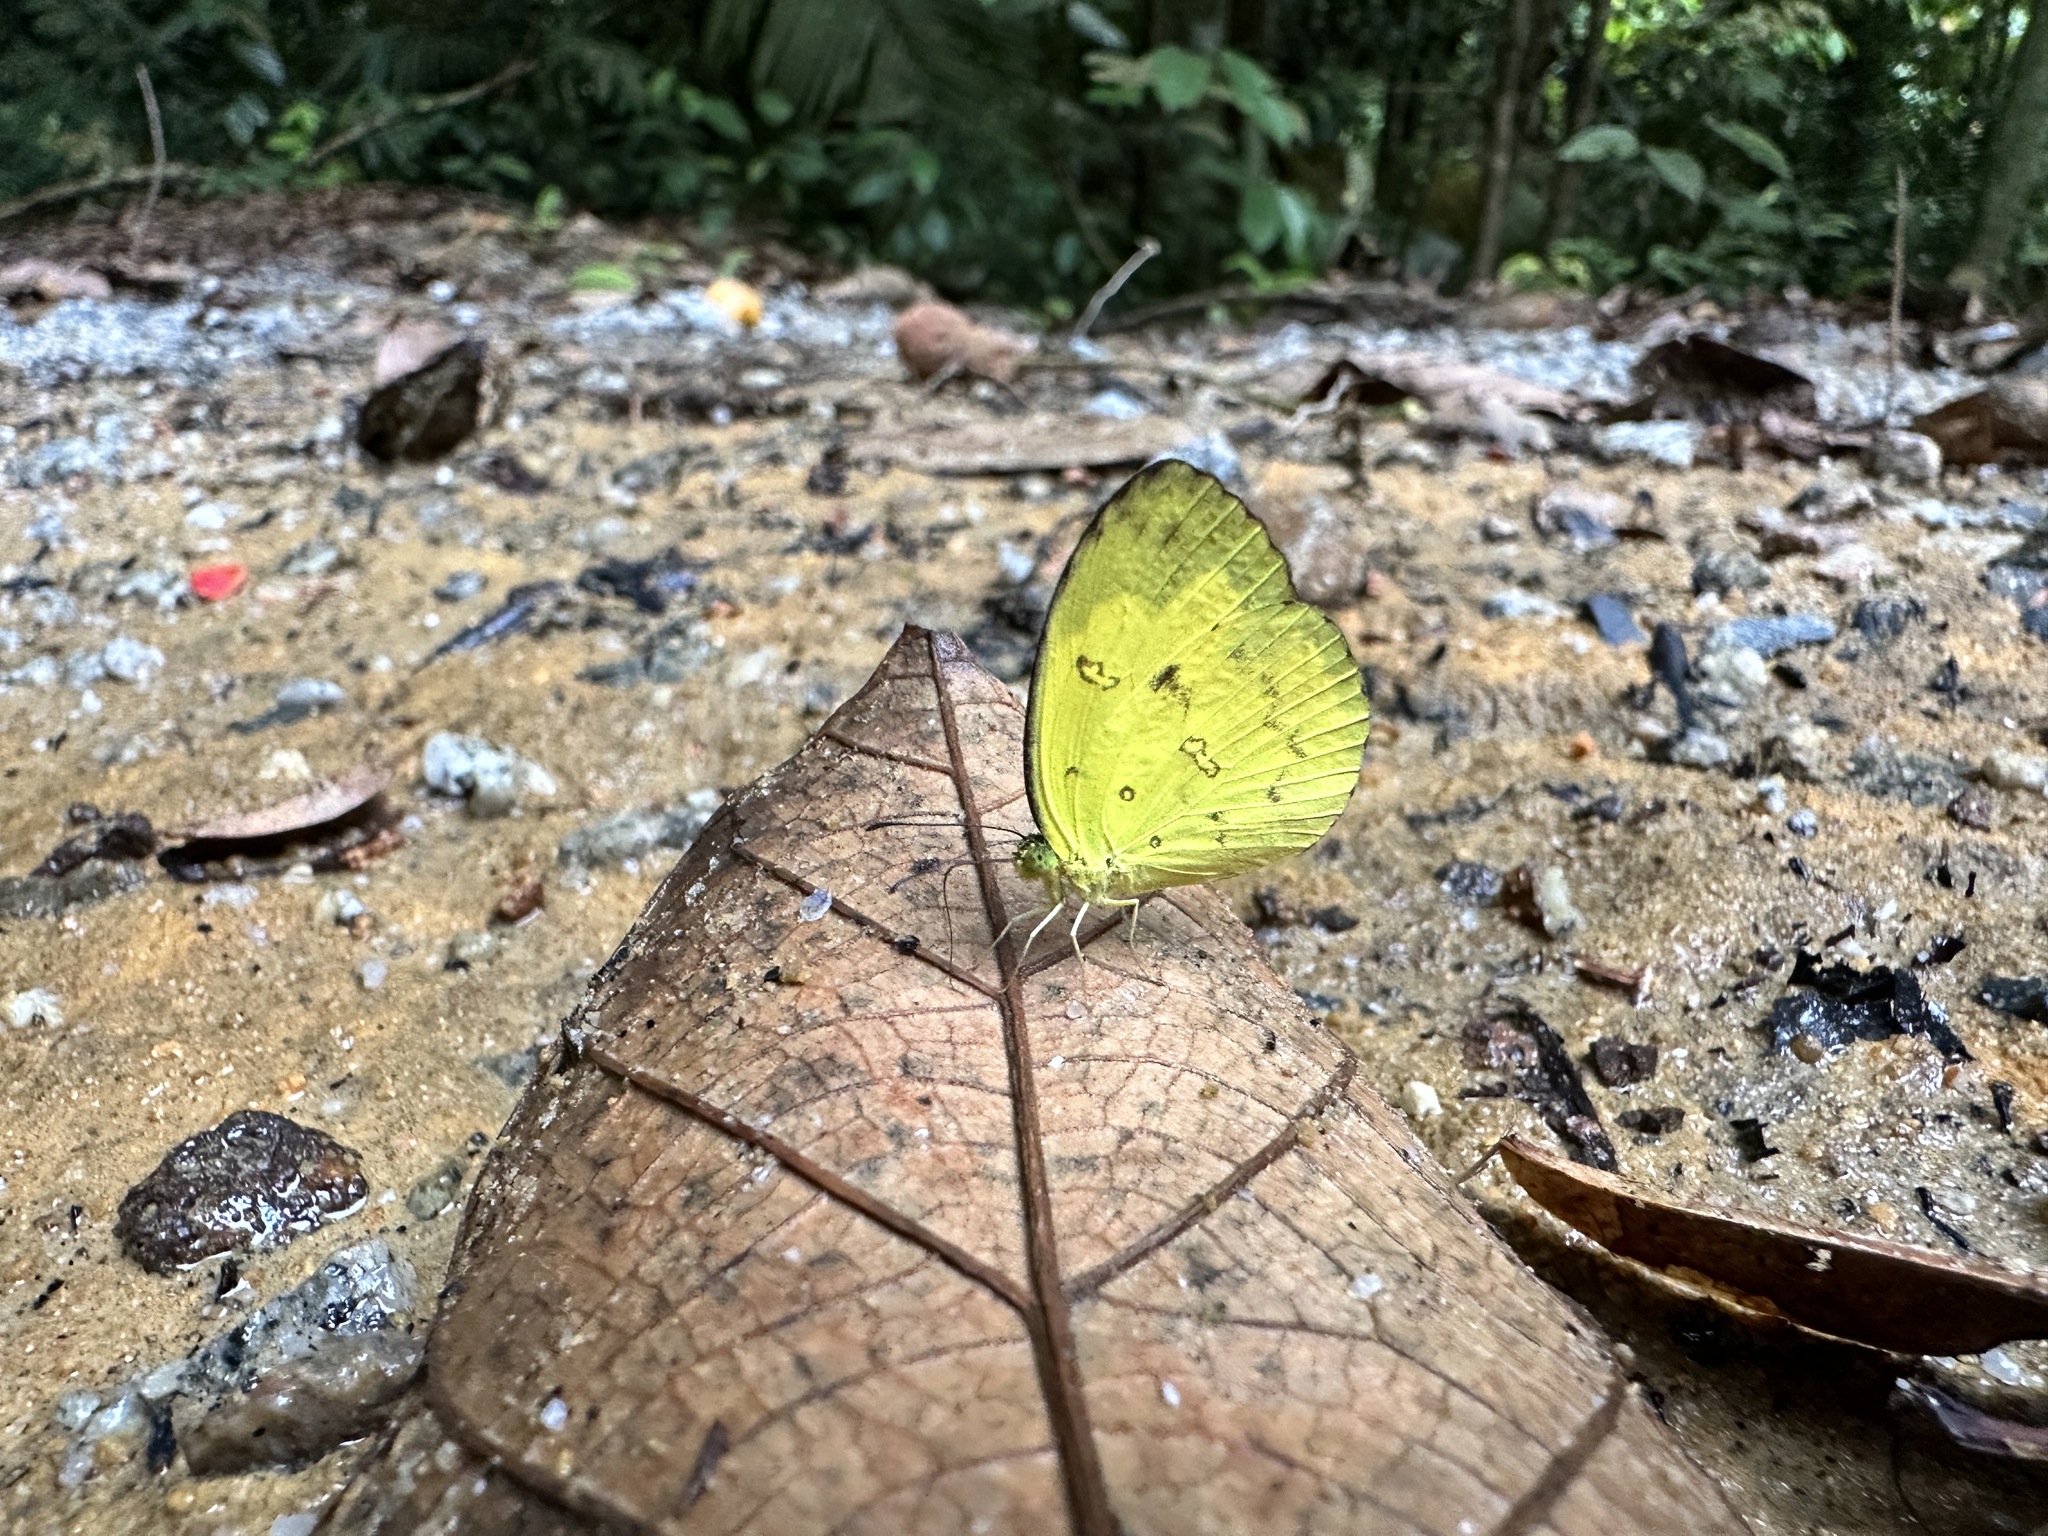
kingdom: Animalia
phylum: Arthropoda
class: Insecta
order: Lepidoptera
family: Pieridae
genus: Eurema
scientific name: Eurema andersoni
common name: One-spot yellow grass
